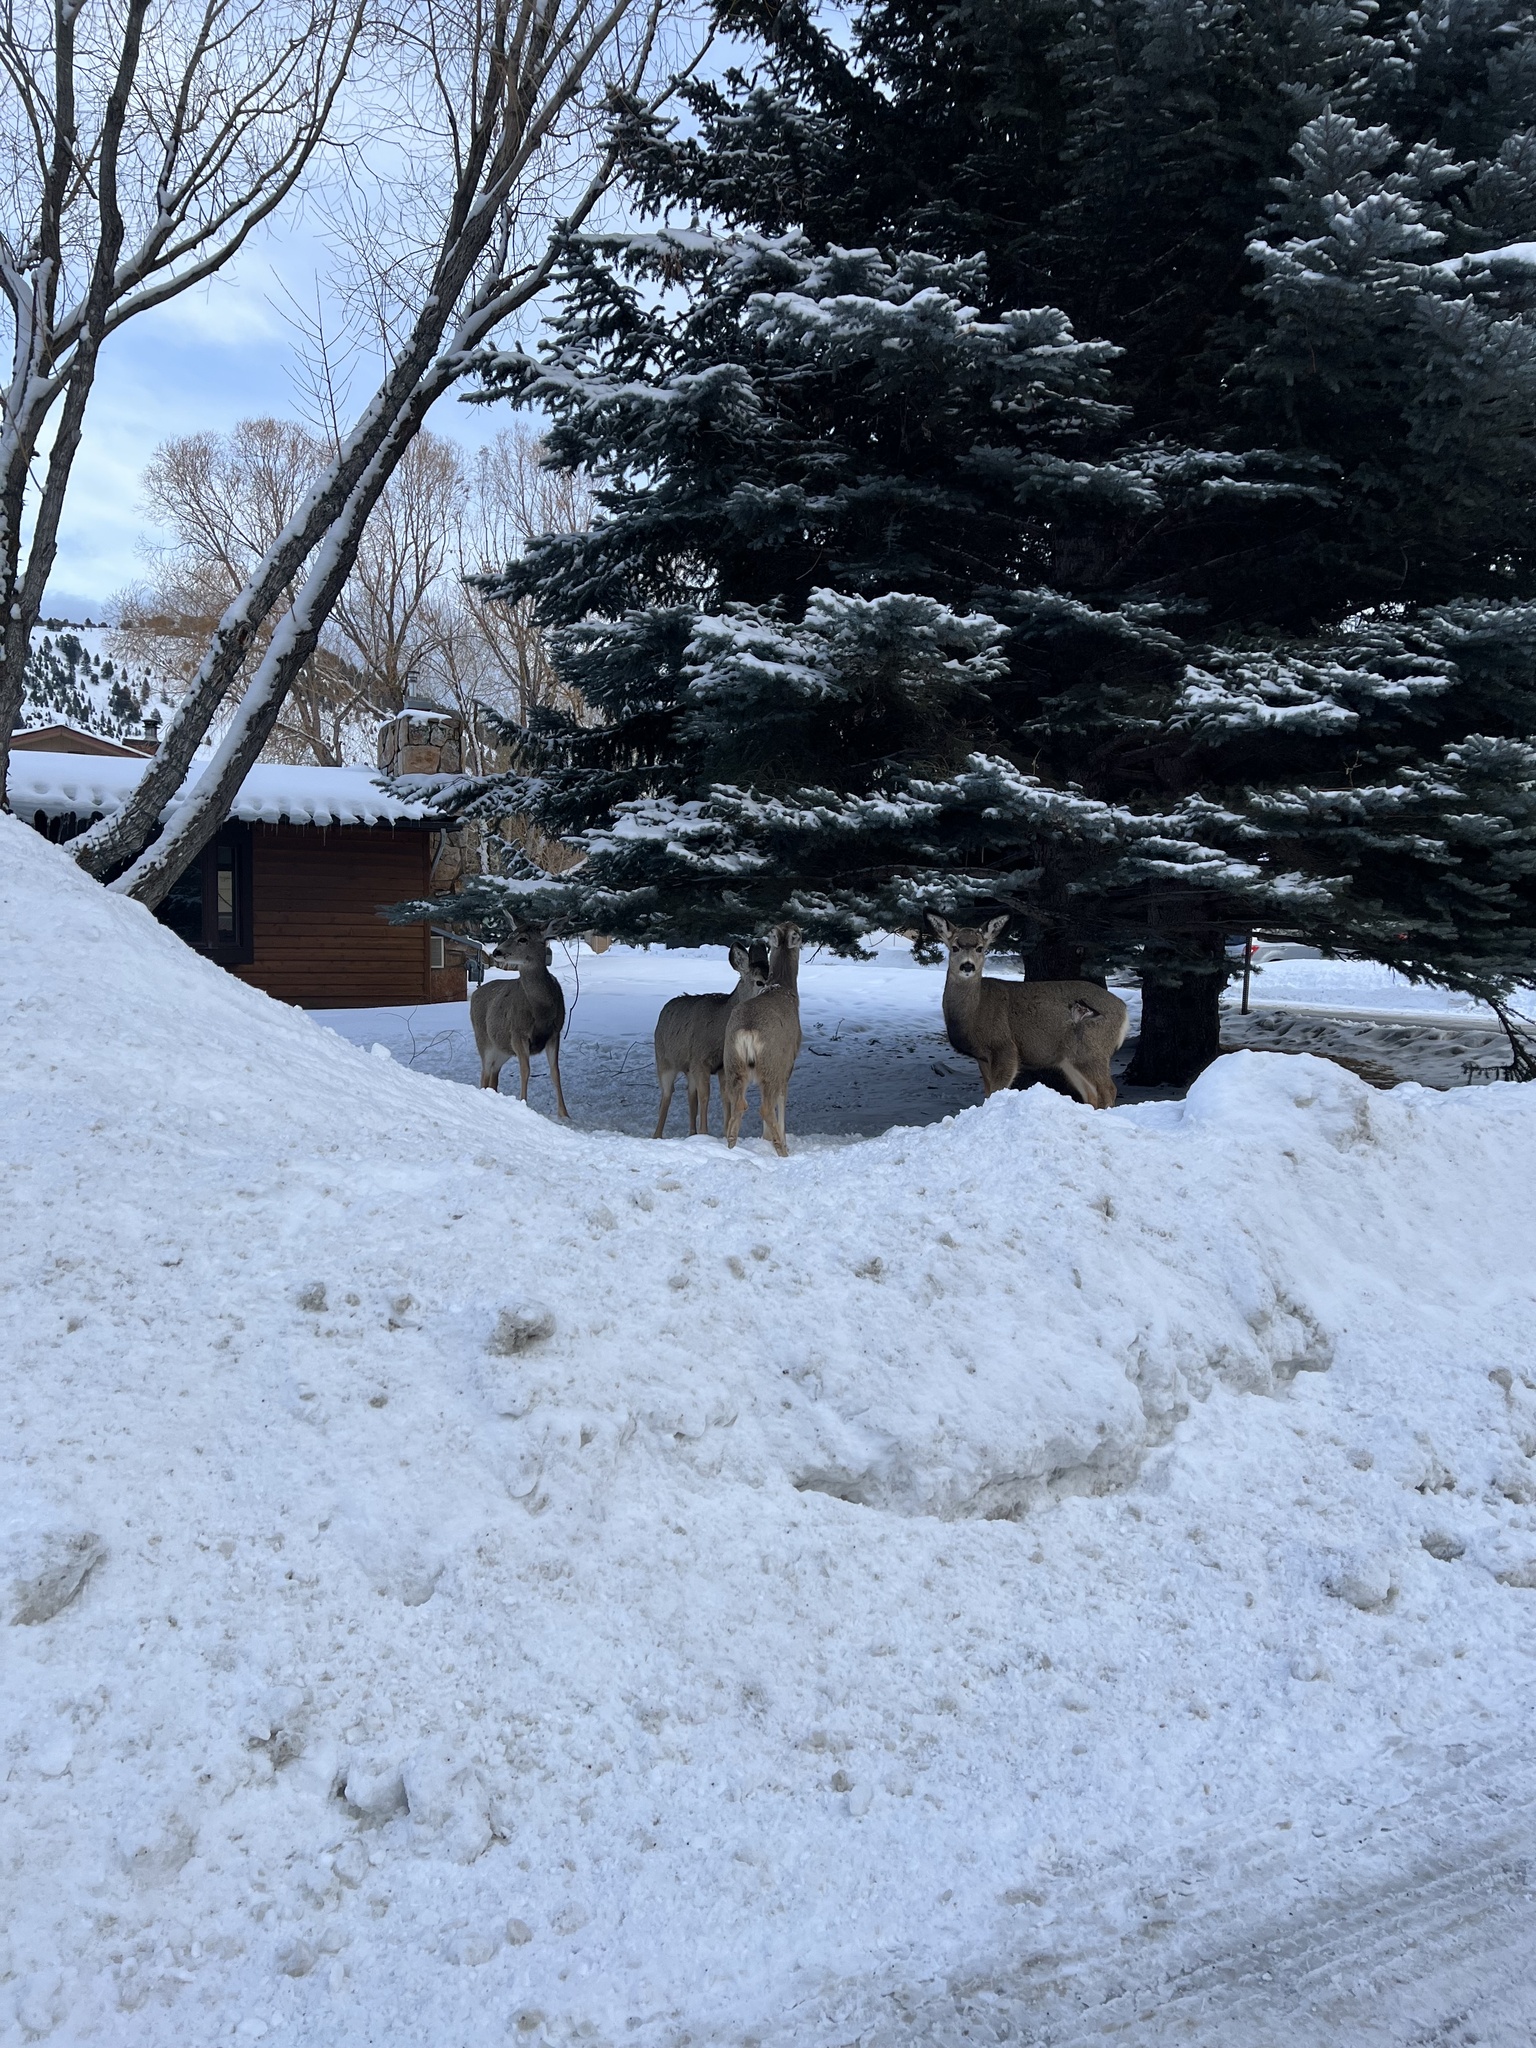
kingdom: Animalia
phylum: Chordata
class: Mammalia
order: Artiodactyla
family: Cervidae
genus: Odocoileus
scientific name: Odocoileus hemionus
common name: Mule deer
